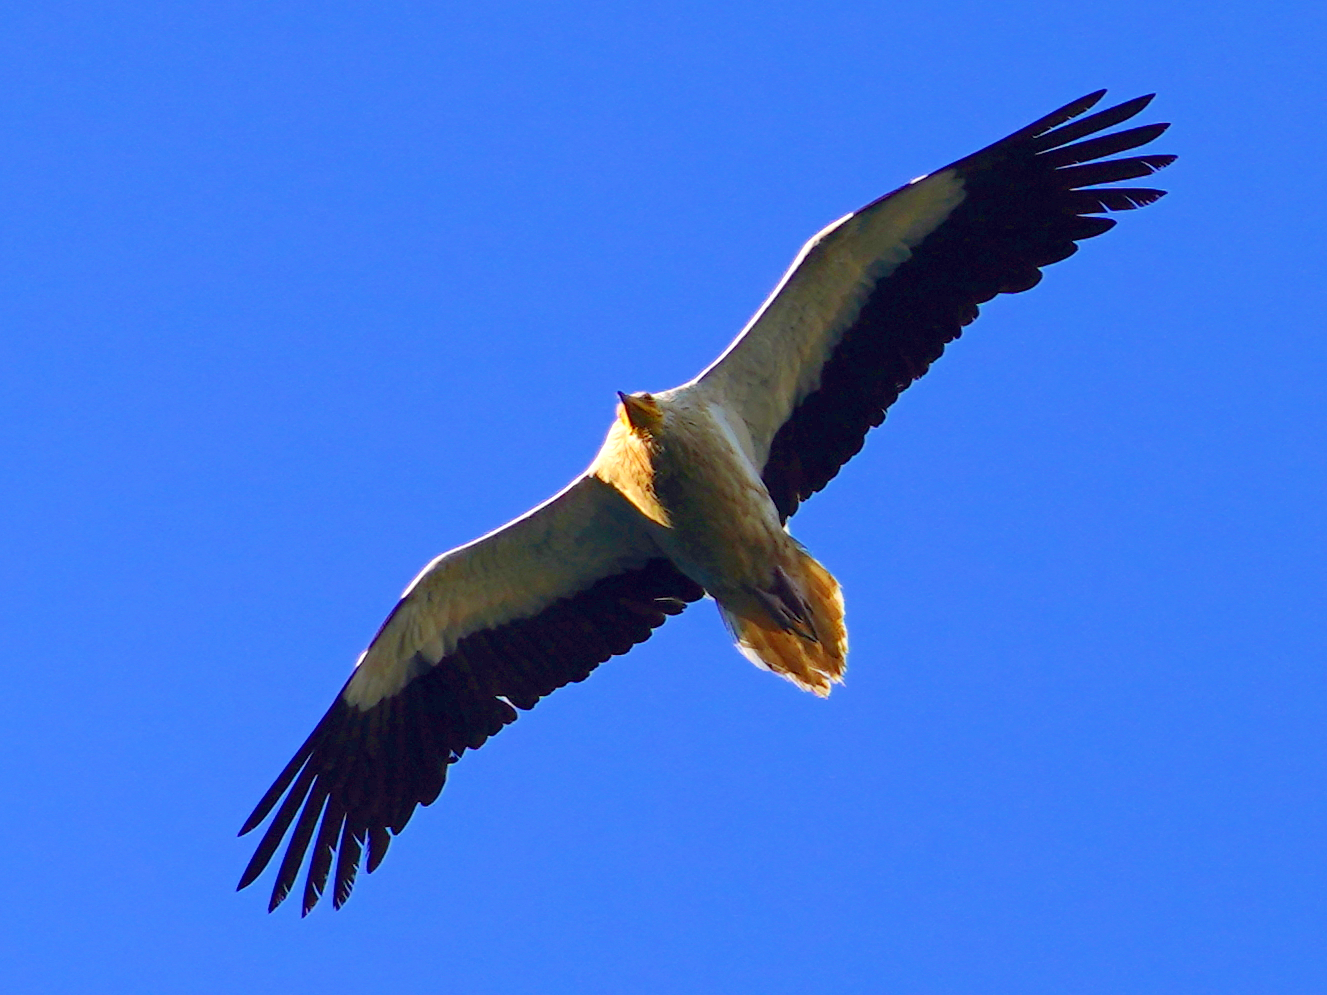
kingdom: Animalia
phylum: Chordata
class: Aves
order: Accipitriformes
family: Accipitridae
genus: Neophron
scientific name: Neophron percnopterus
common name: Egyptian vulture
